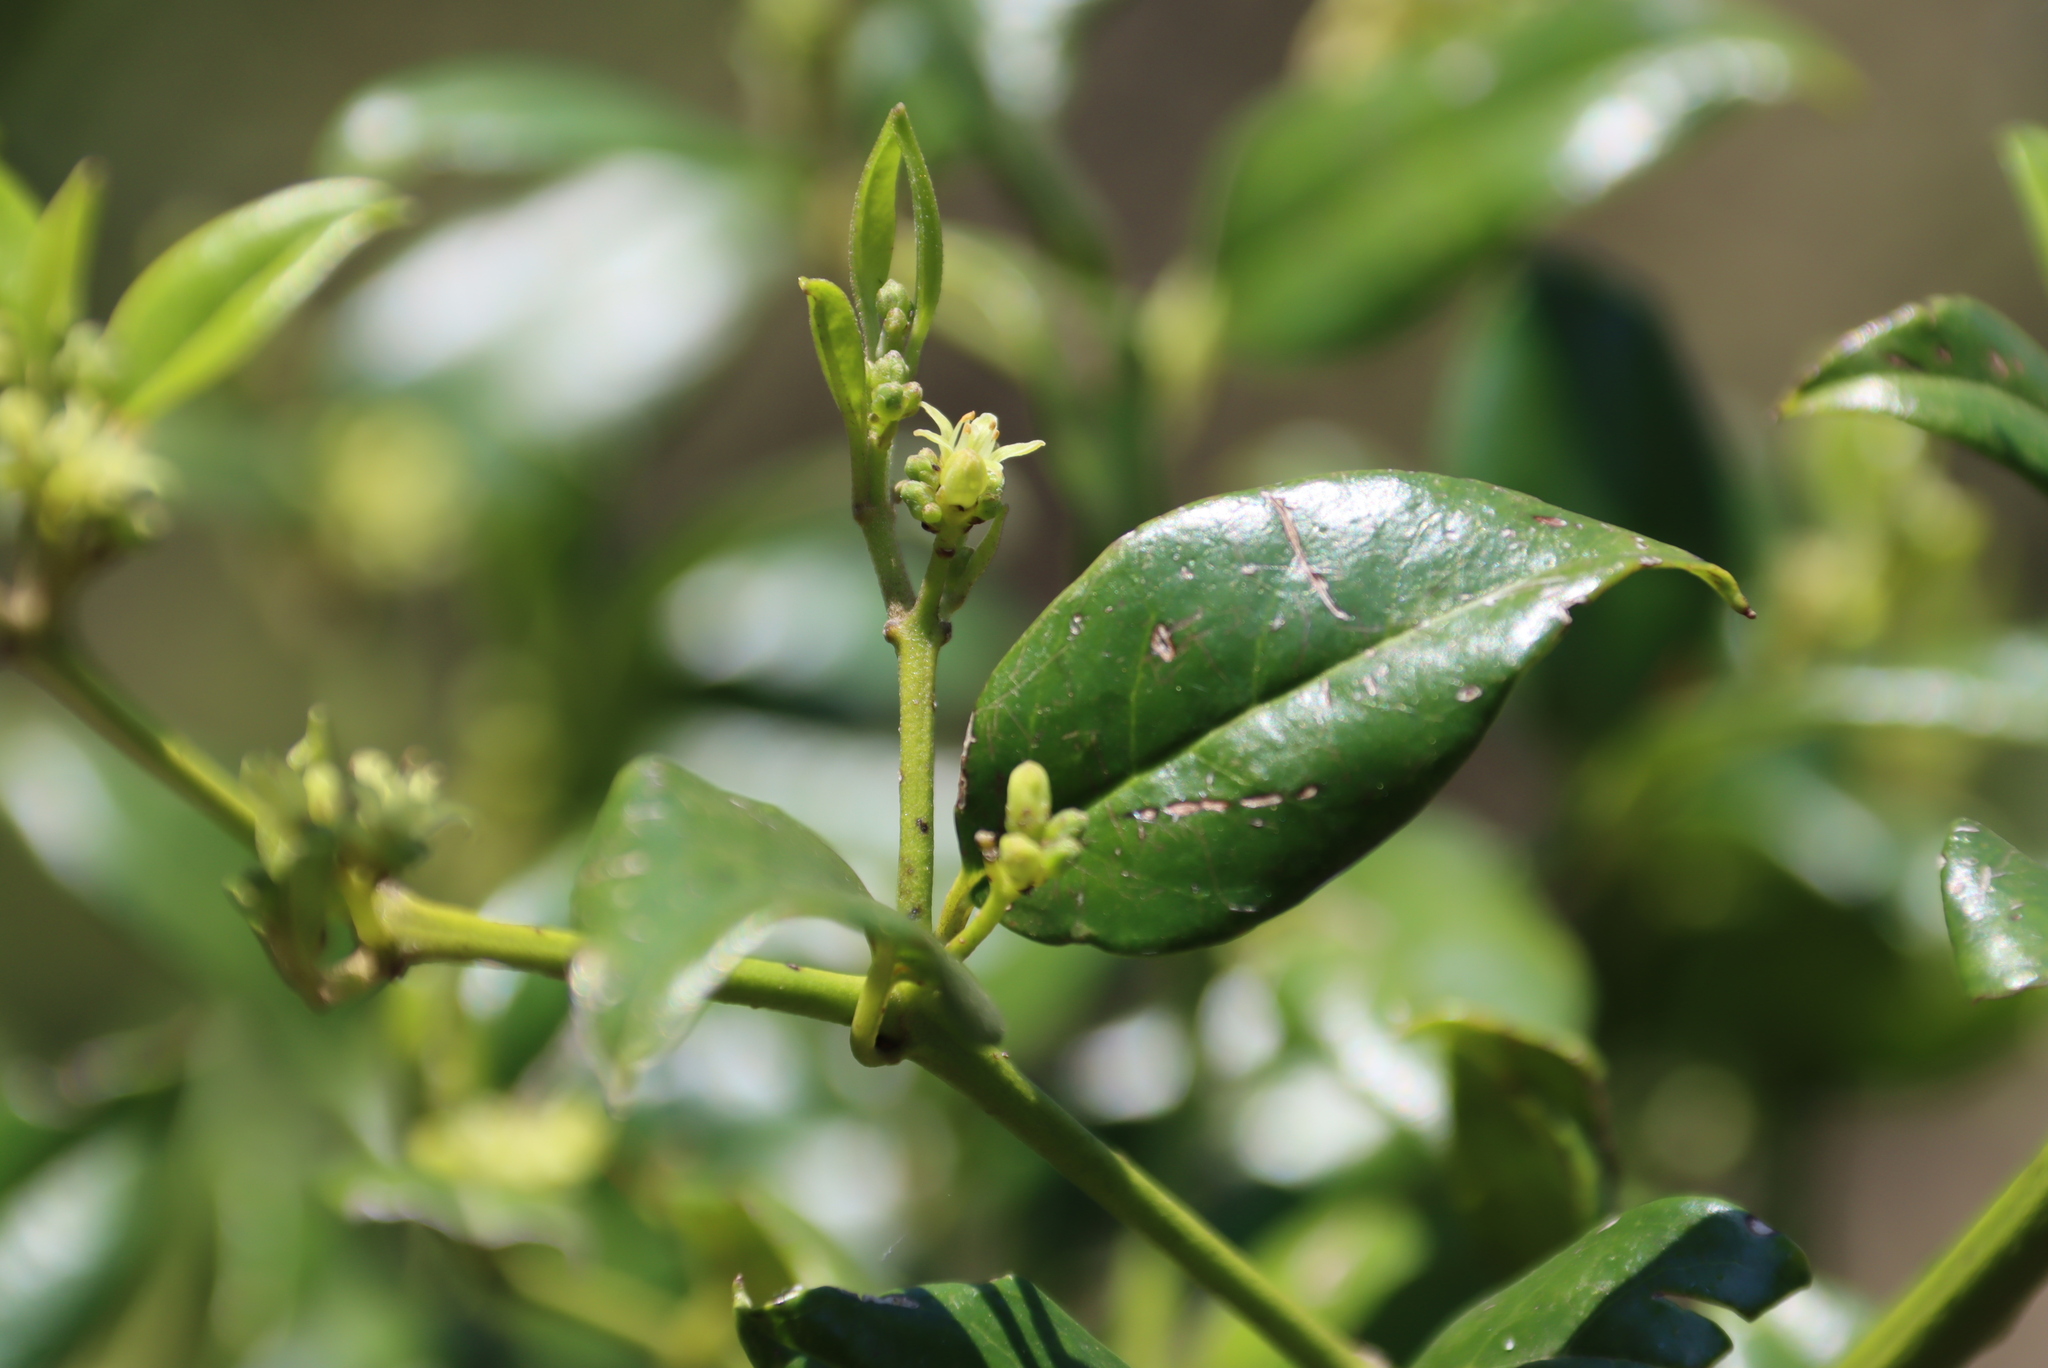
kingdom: Plantae
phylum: Tracheophyta
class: Magnoliopsida
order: Icacinales
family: Icacinaceae
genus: Cassinopsis
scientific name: Cassinopsis ilicifolia
